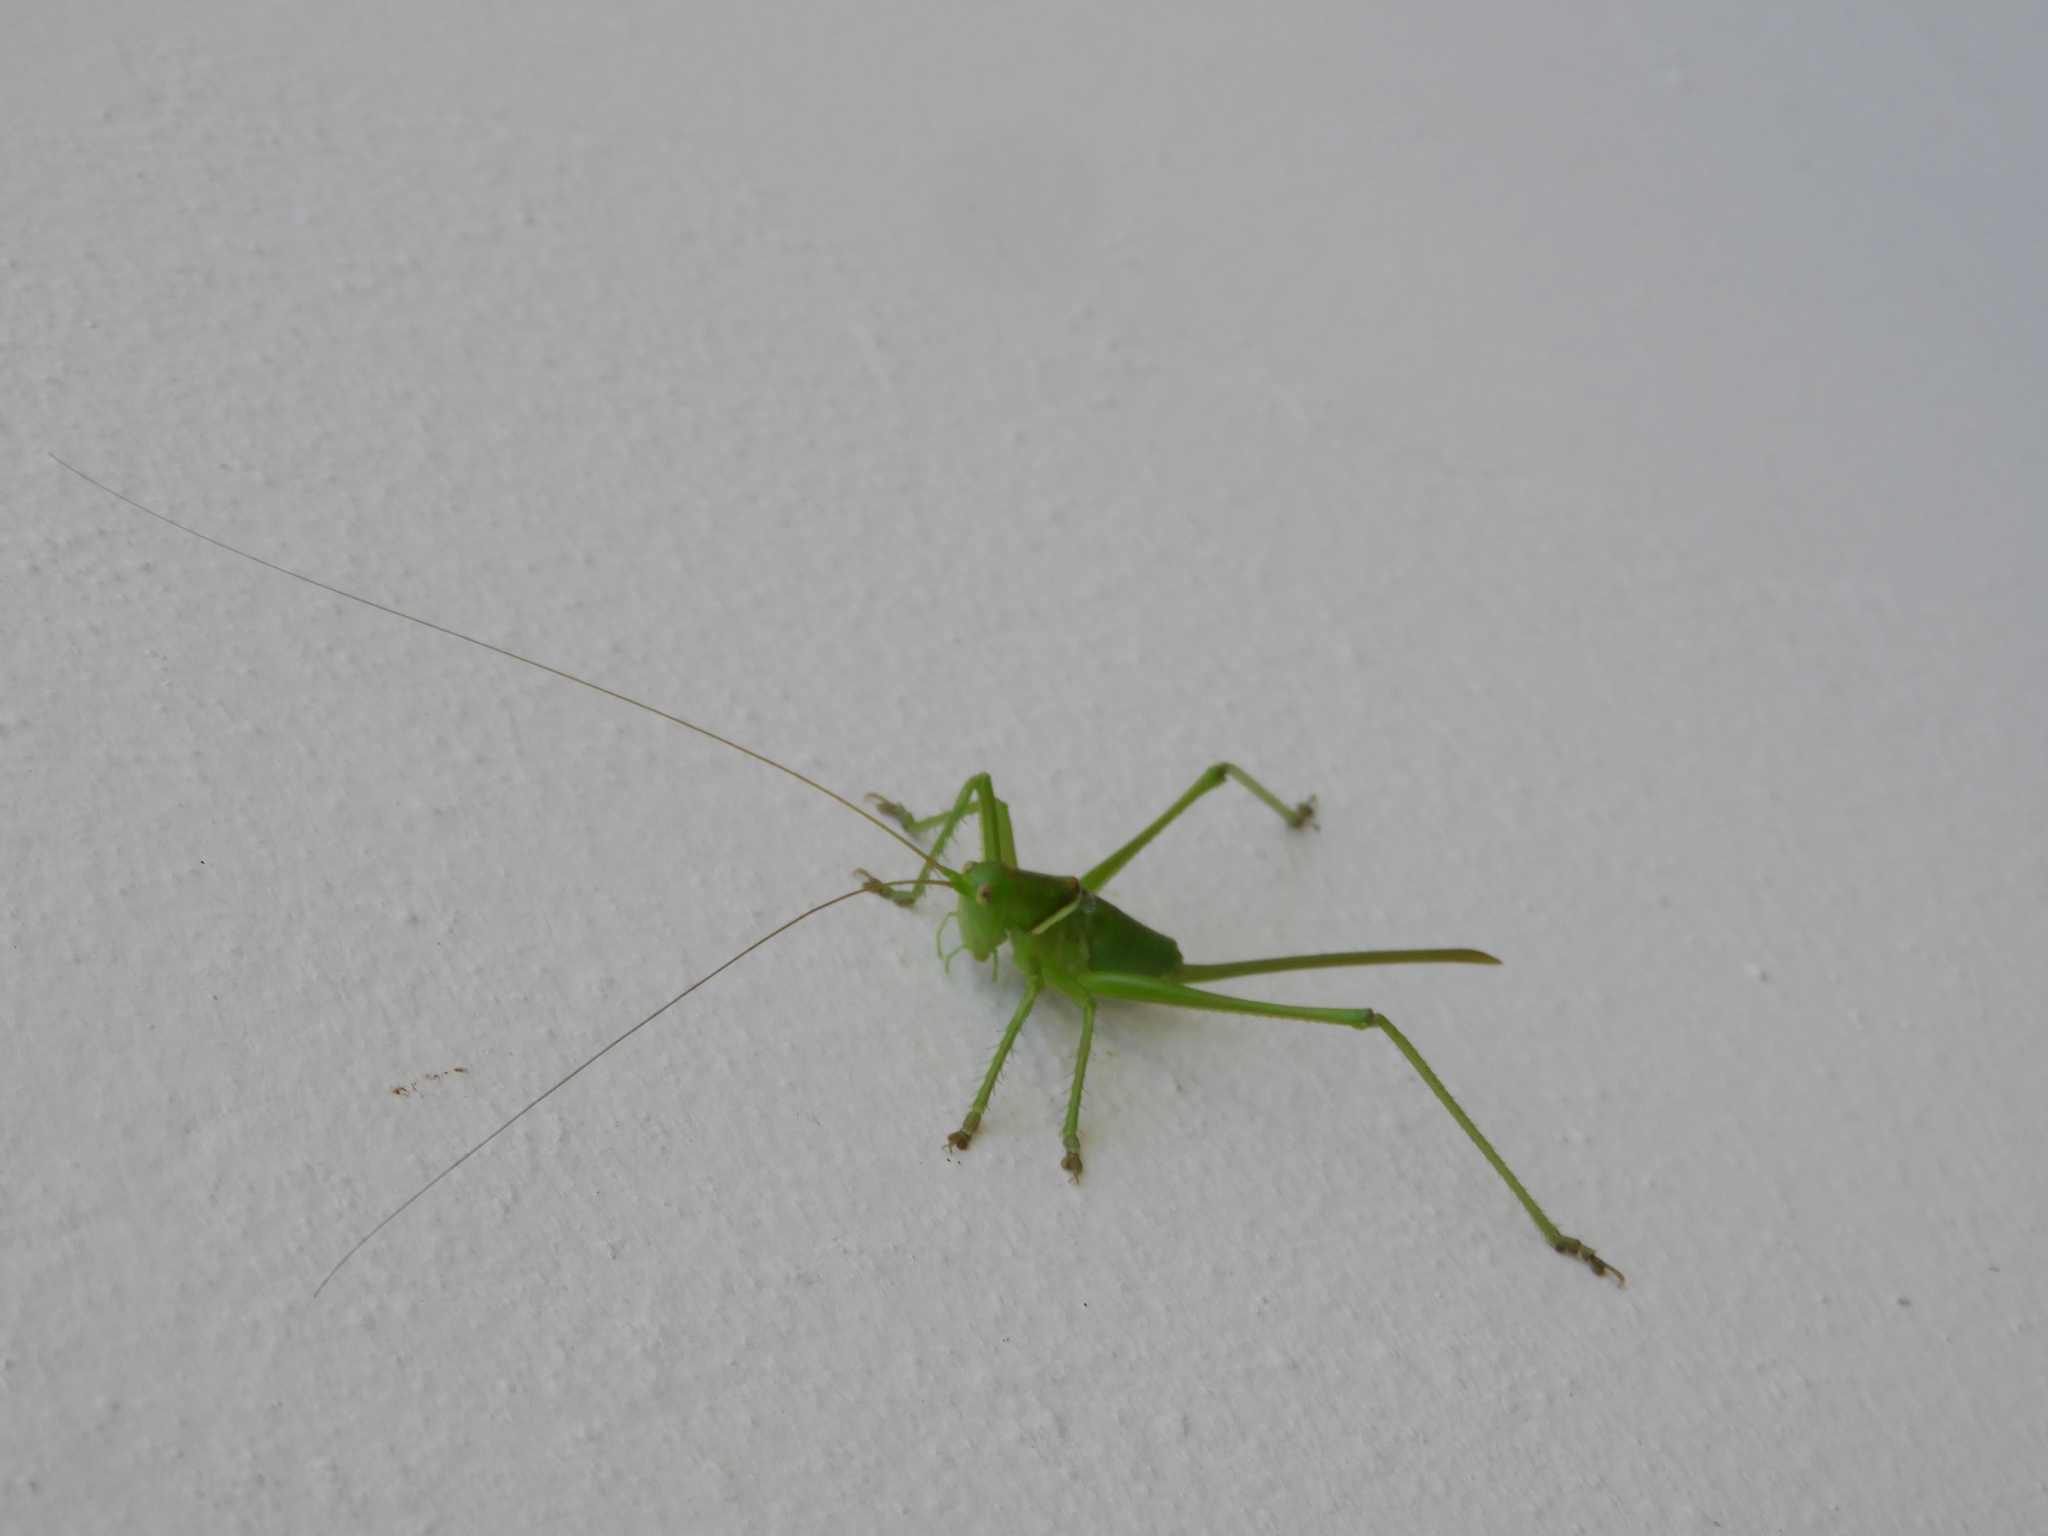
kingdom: Animalia
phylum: Arthropoda
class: Insecta
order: Orthoptera
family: Tettigoniidae
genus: Neobarrettia
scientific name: Neobarrettia sinaloae
